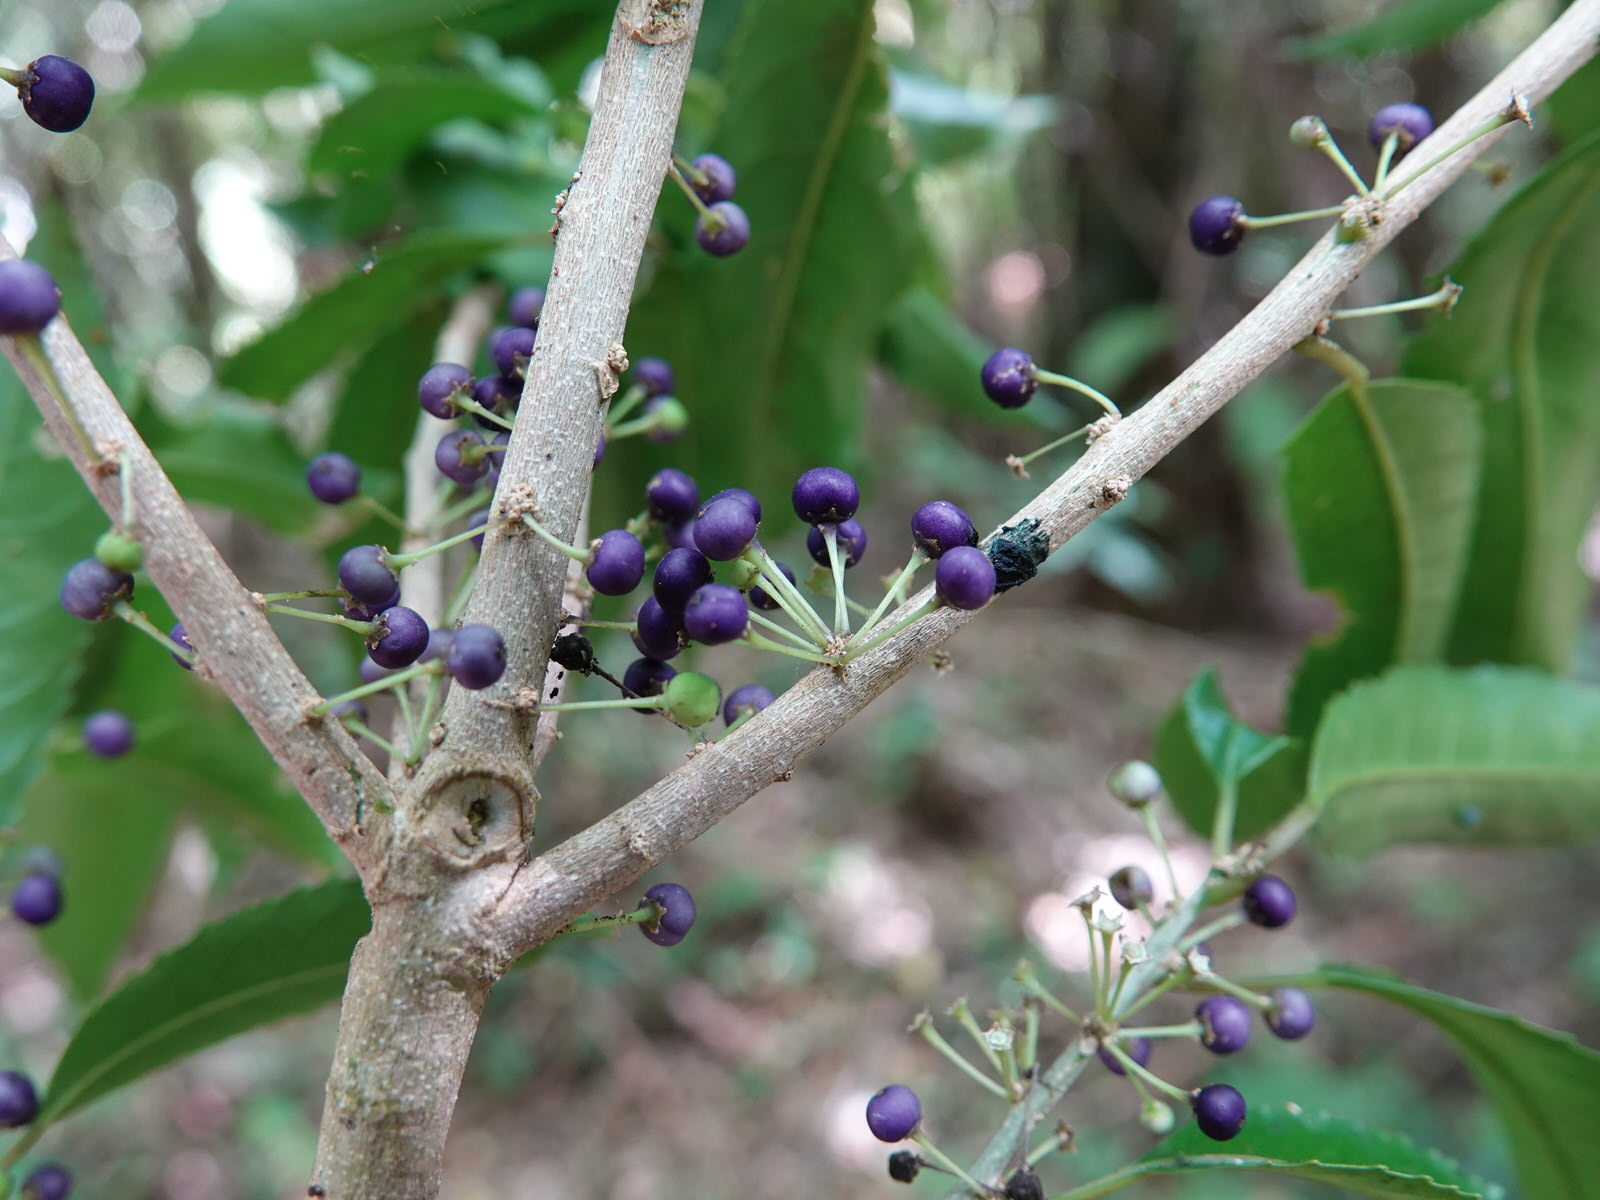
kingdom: Plantae
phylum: Tracheophyta
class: Magnoliopsida
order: Malpighiales
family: Violaceae
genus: Melicytus
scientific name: Melicytus ramiflorus
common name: Mahoe
